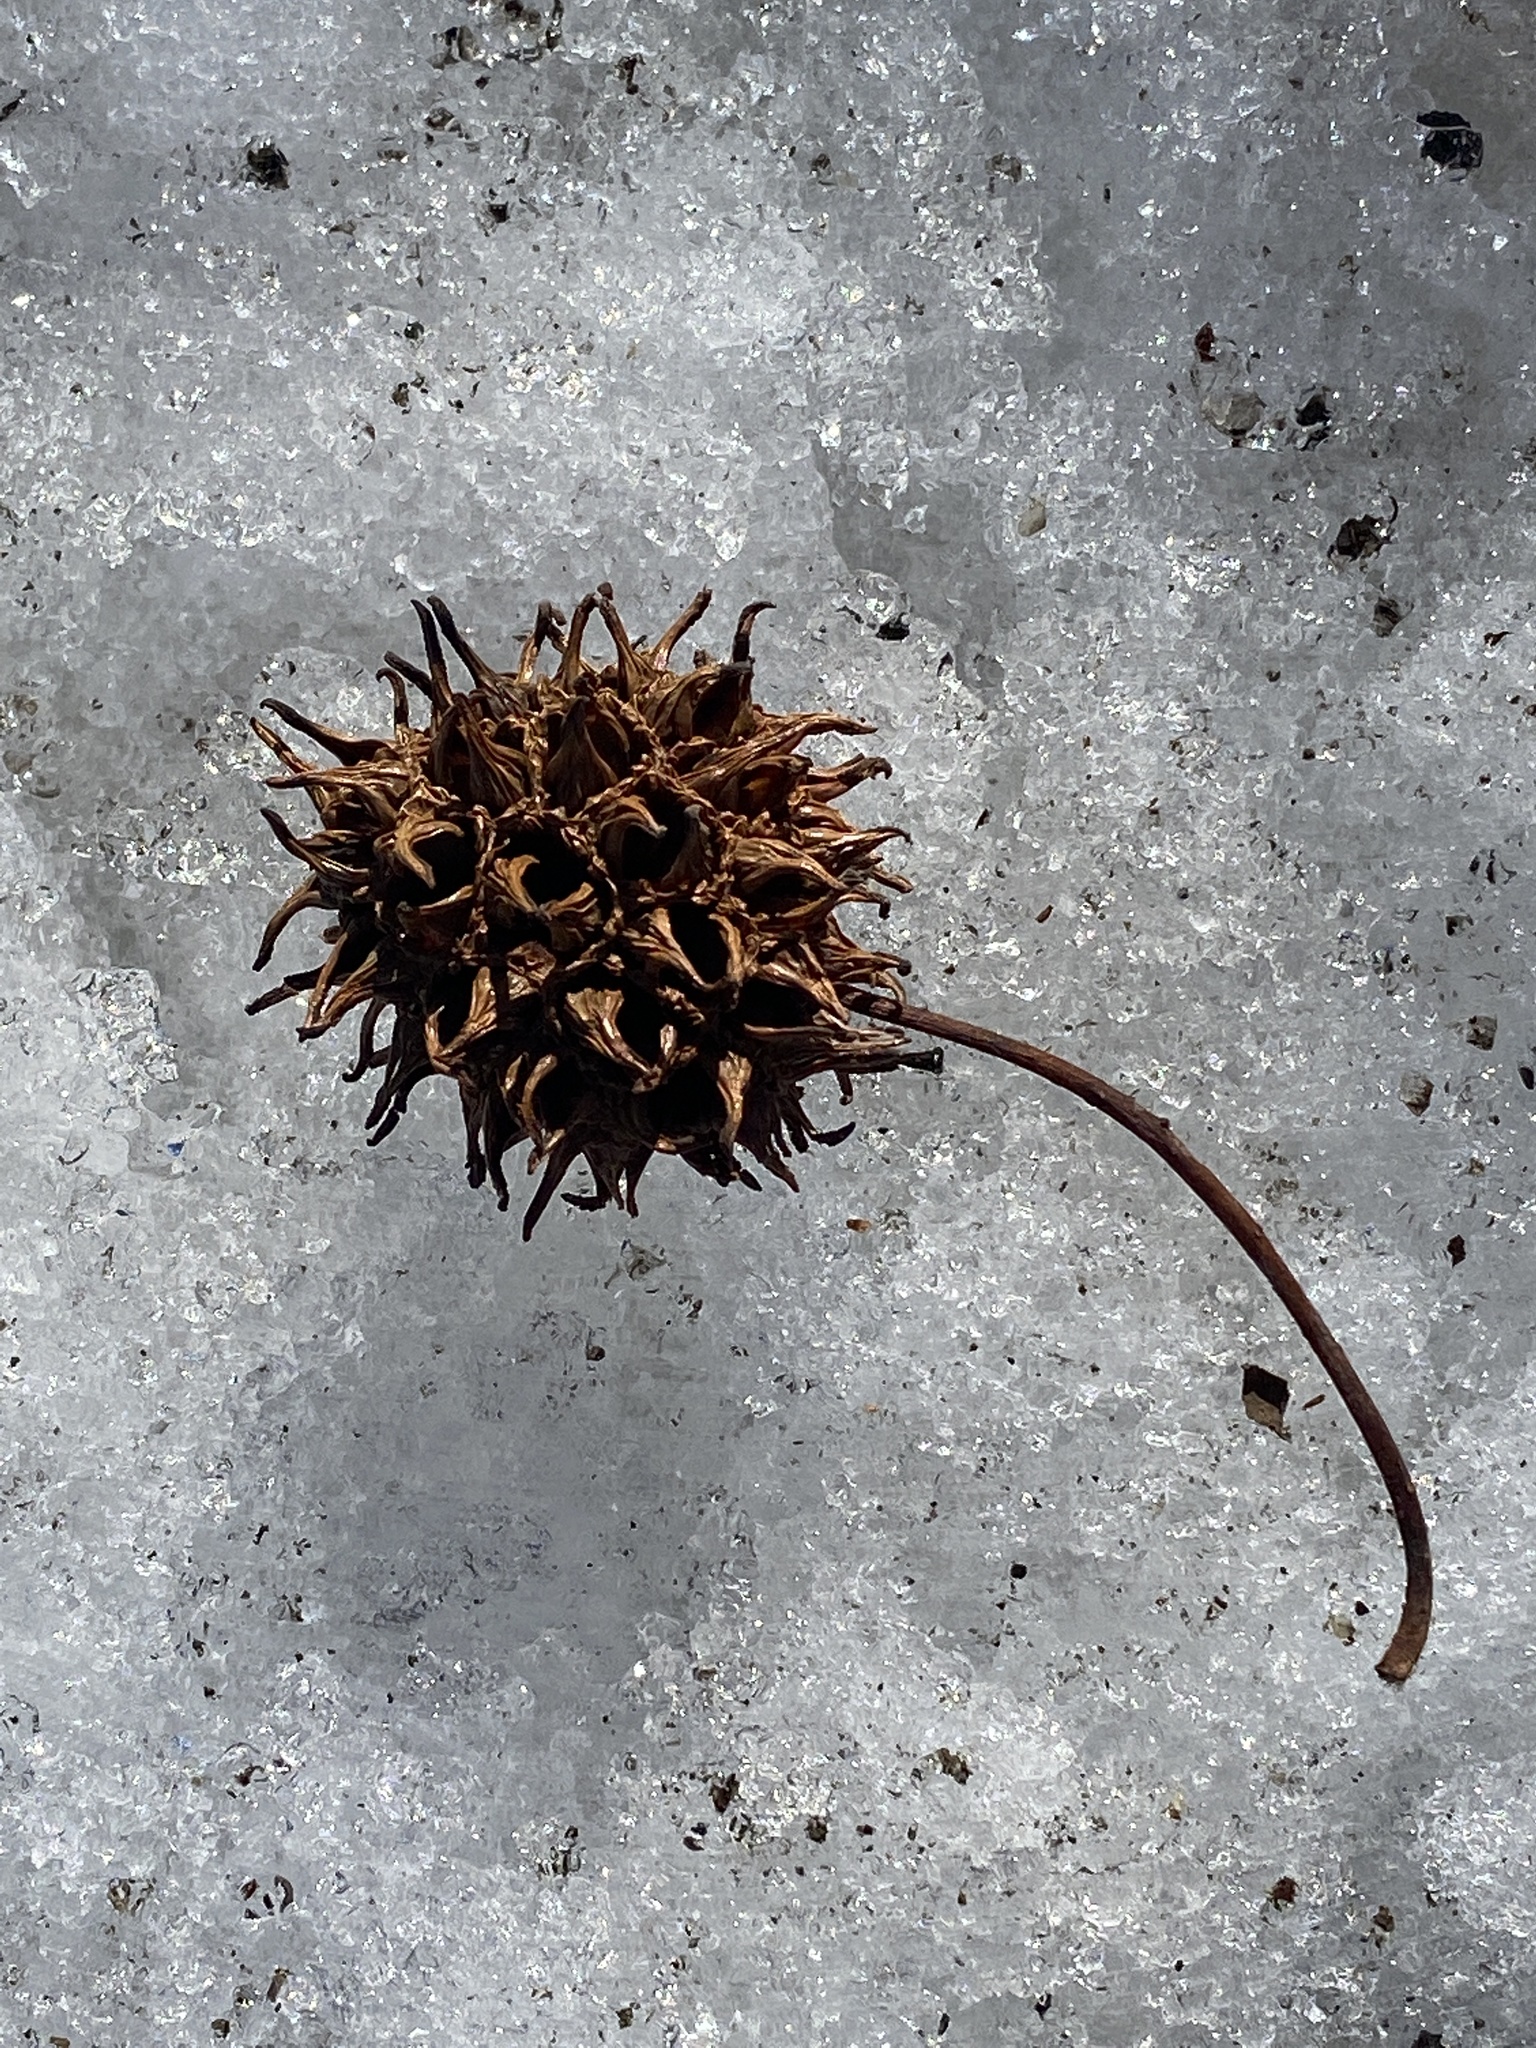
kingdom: Plantae
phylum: Tracheophyta
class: Magnoliopsida
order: Saxifragales
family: Altingiaceae
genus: Liquidambar
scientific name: Liquidambar styraciflua
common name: Sweet gum
